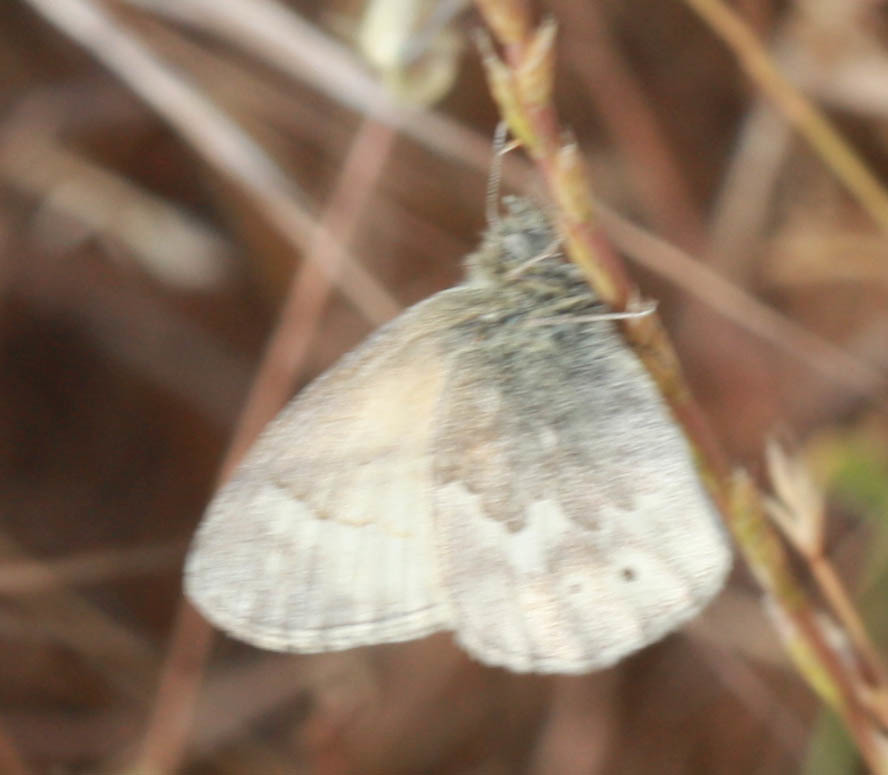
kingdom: Animalia
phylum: Arthropoda
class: Insecta
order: Lepidoptera
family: Nymphalidae
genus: Coenonympha
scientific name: Coenonympha california
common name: Common ringlet
